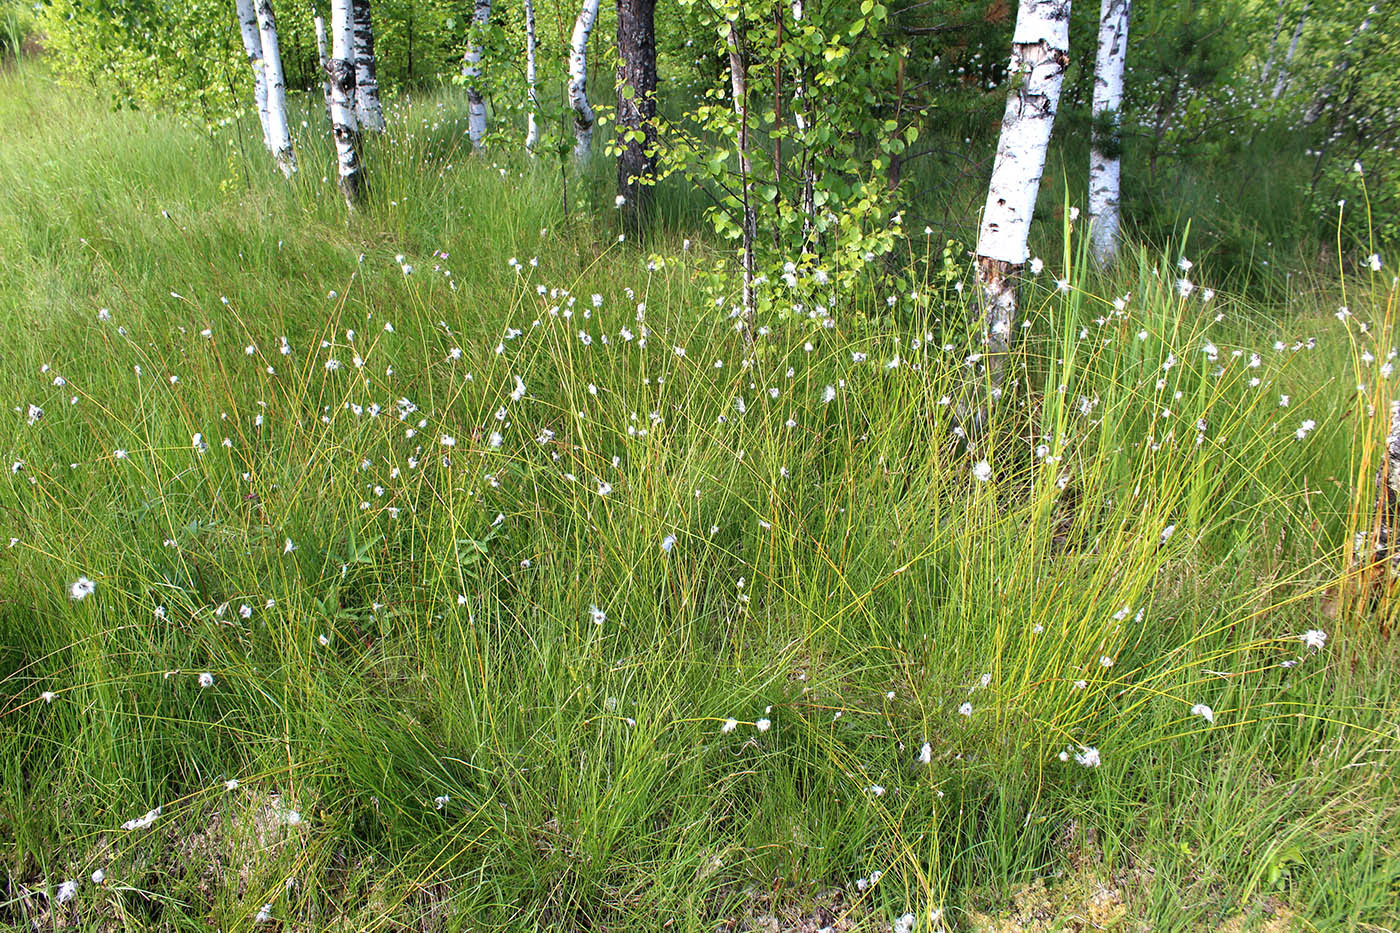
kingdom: Plantae
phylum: Tracheophyta
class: Liliopsida
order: Poales
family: Cyperaceae
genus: Eriophorum
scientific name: Eriophorum vaginatum
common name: Hare's-tail cottongrass
